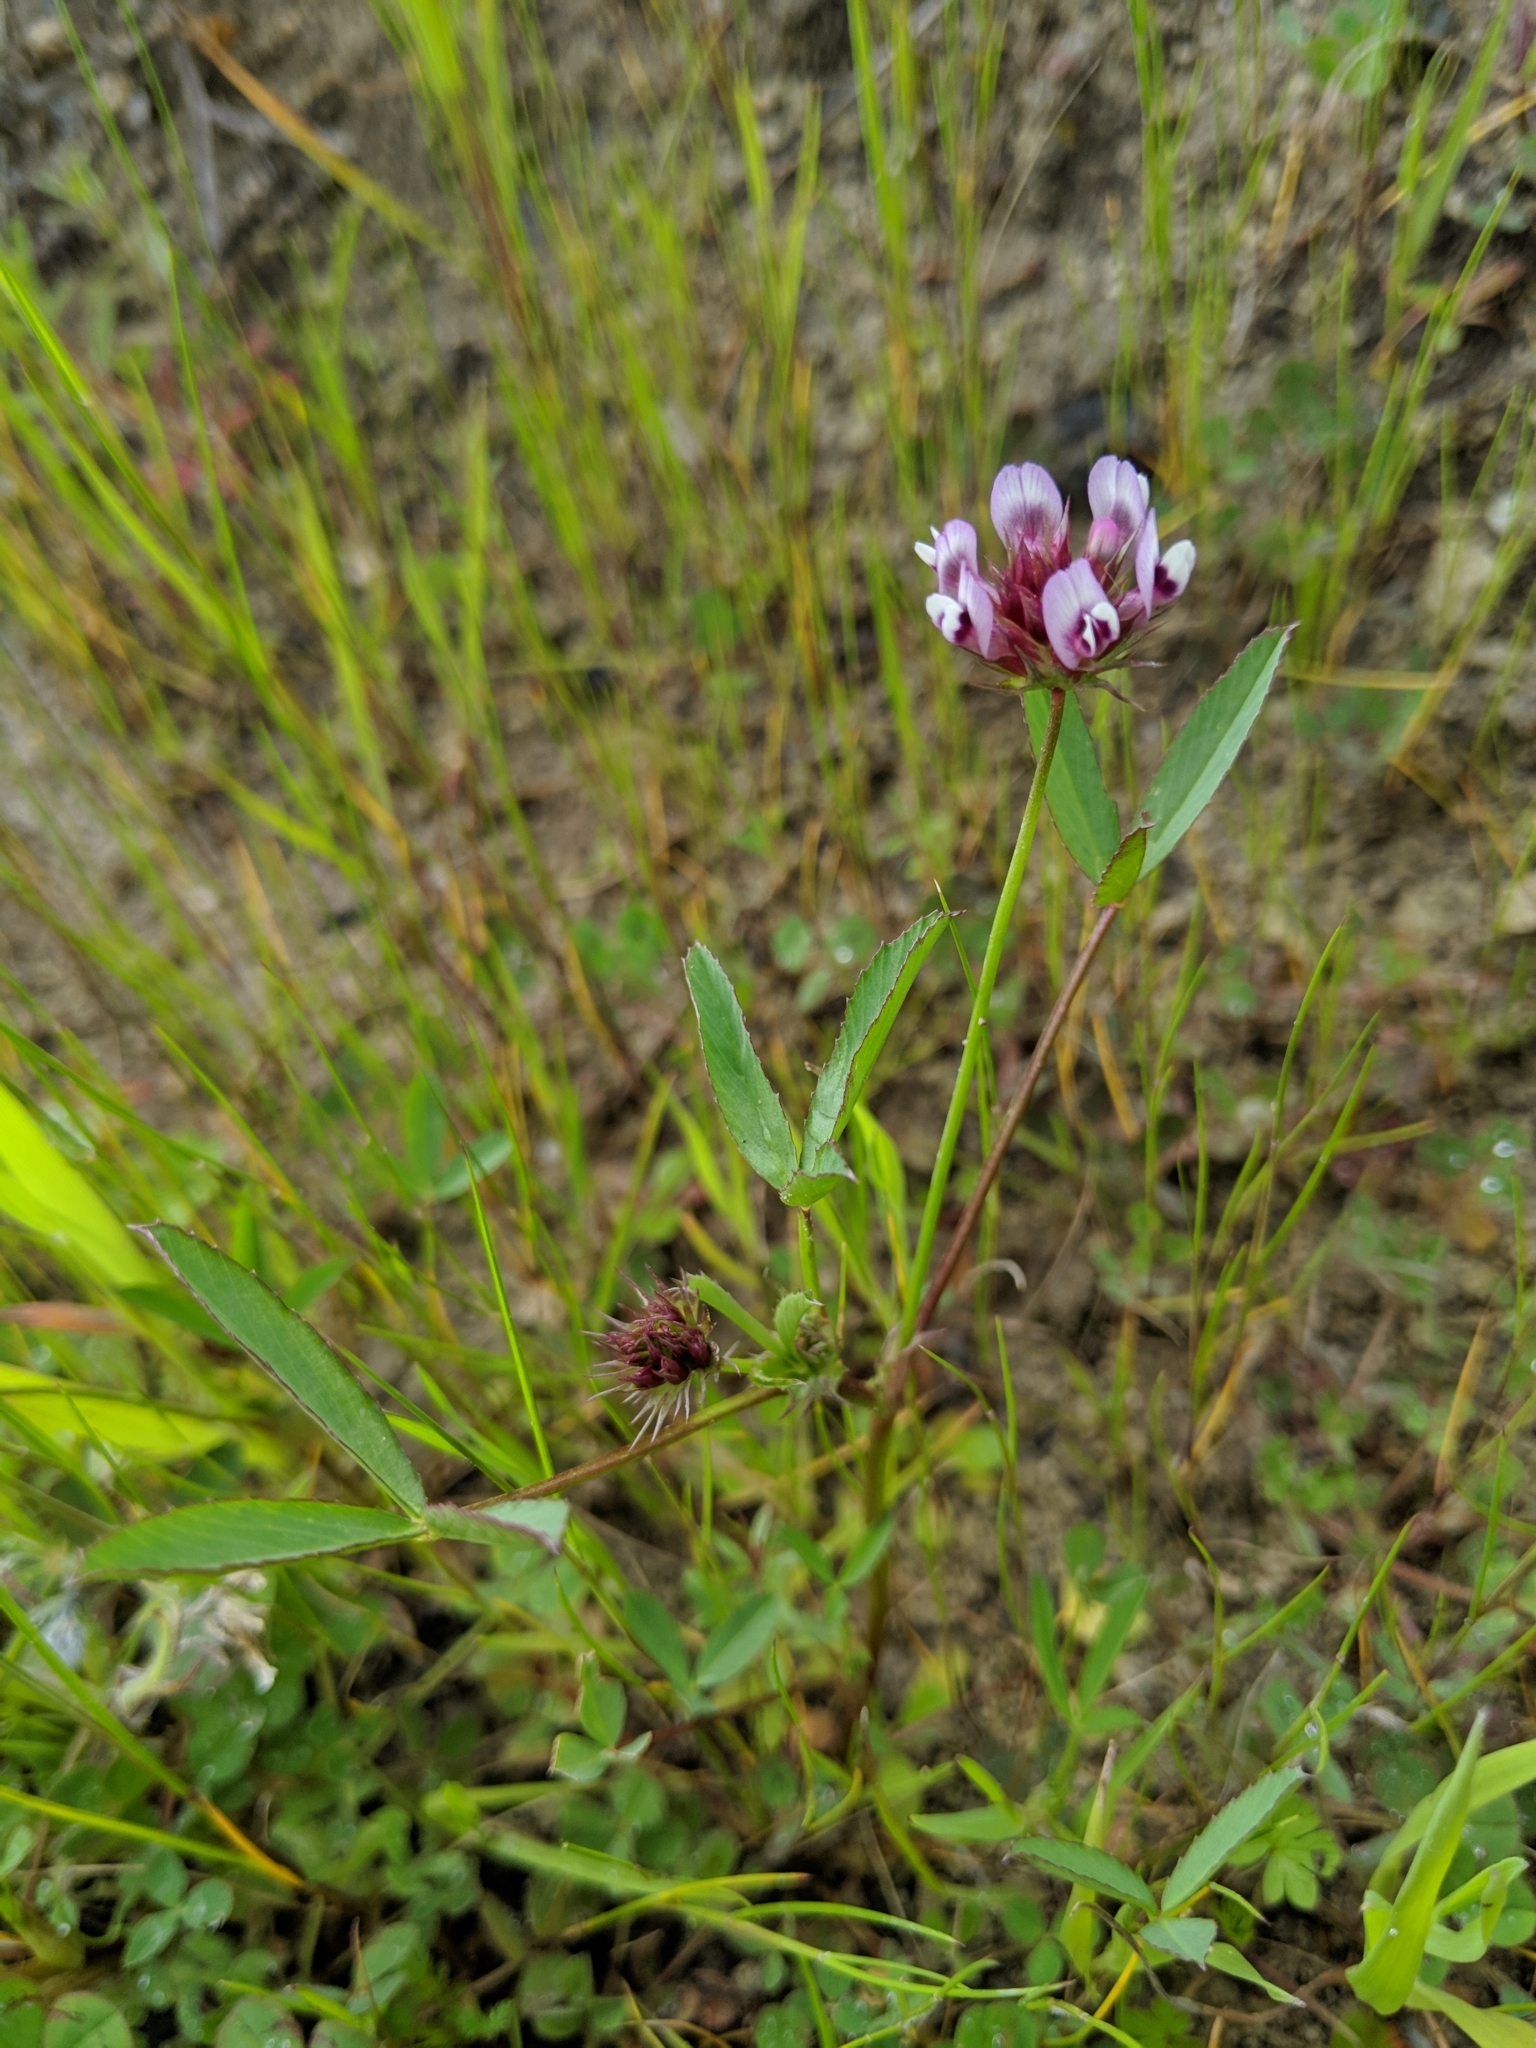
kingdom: Plantae
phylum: Tracheophyta
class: Magnoliopsida
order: Fabales
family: Fabaceae
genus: Trifolium
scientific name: Trifolium willdenovii
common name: Tomcat clover
